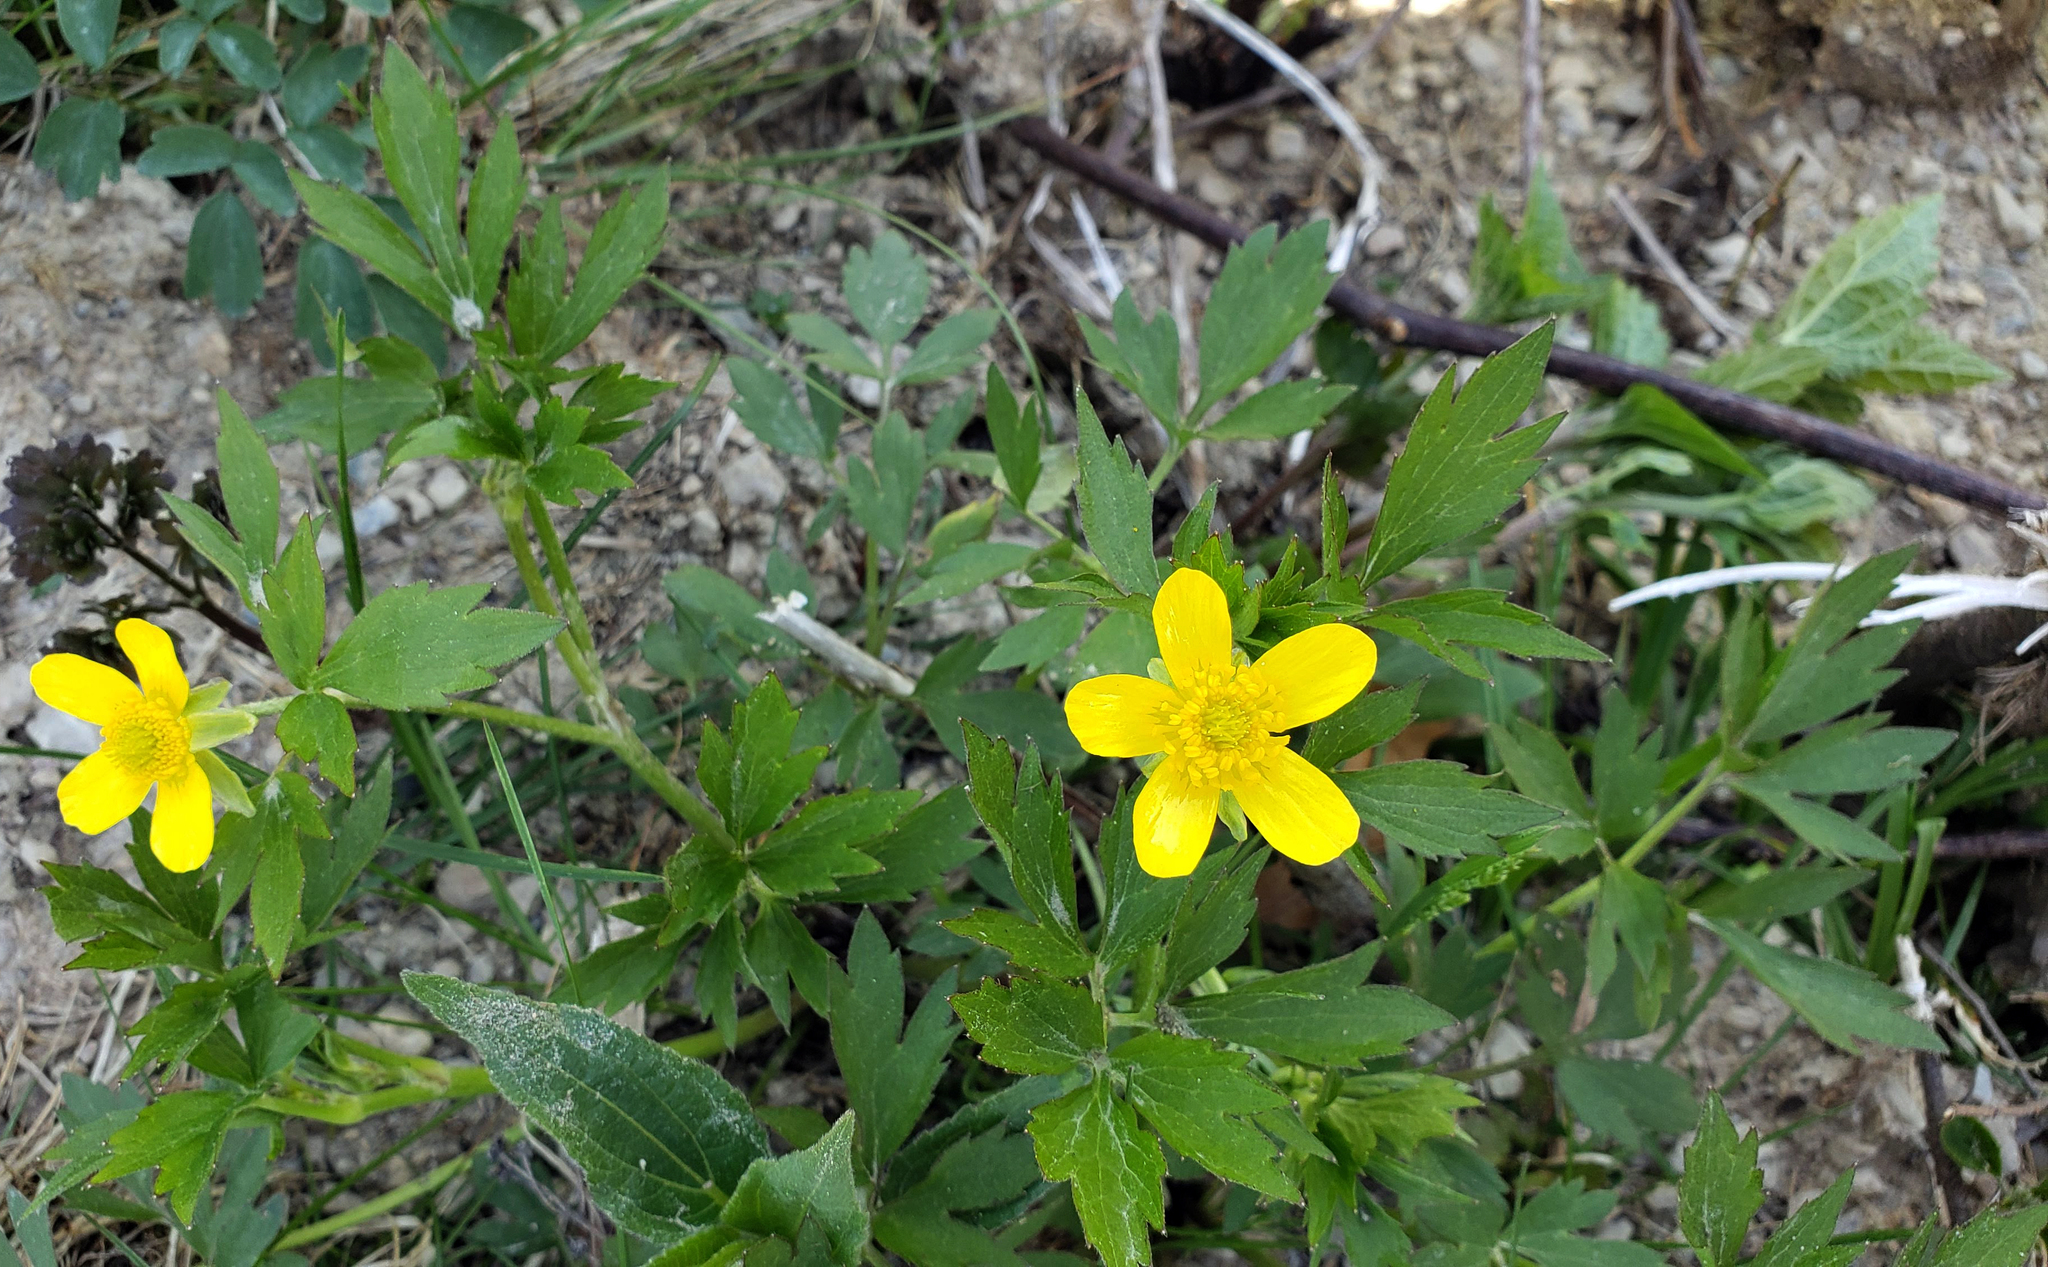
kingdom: Plantae
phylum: Tracheophyta
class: Magnoliopsida
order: Ranunculales
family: Ranunculaceae
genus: Ranunculus
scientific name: Ranunculus hispidus
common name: Bristly buttercup
